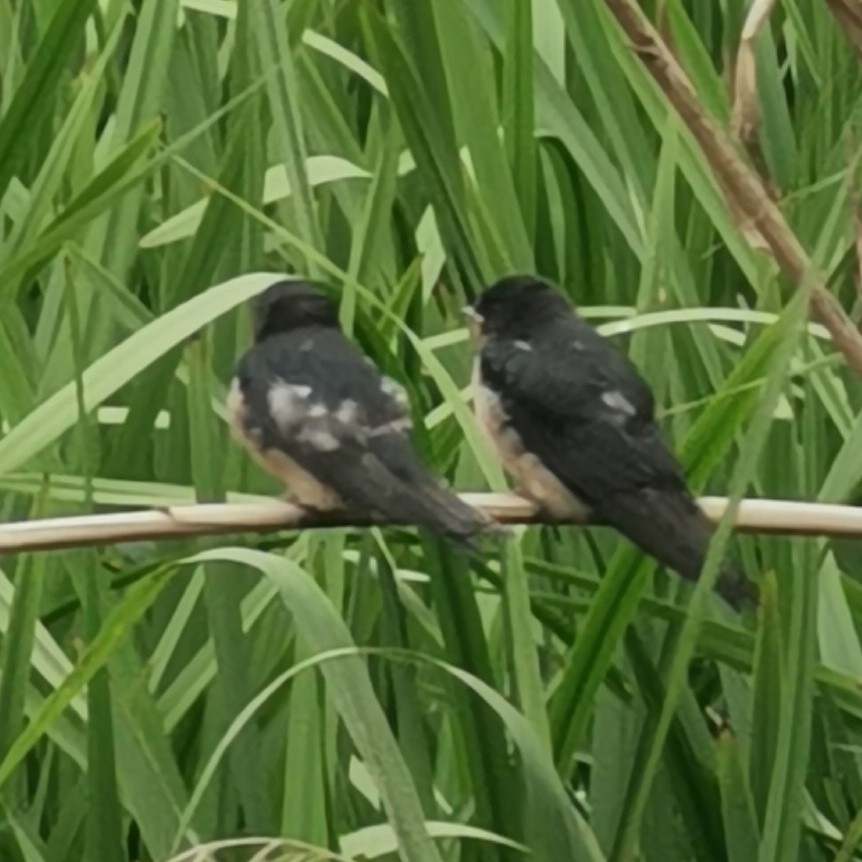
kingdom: Animalia
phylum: Chordata
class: Aves
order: Passeriformes
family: Hirundinidae
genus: Hirundo
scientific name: Hirundo rustica
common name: Barn swallow
